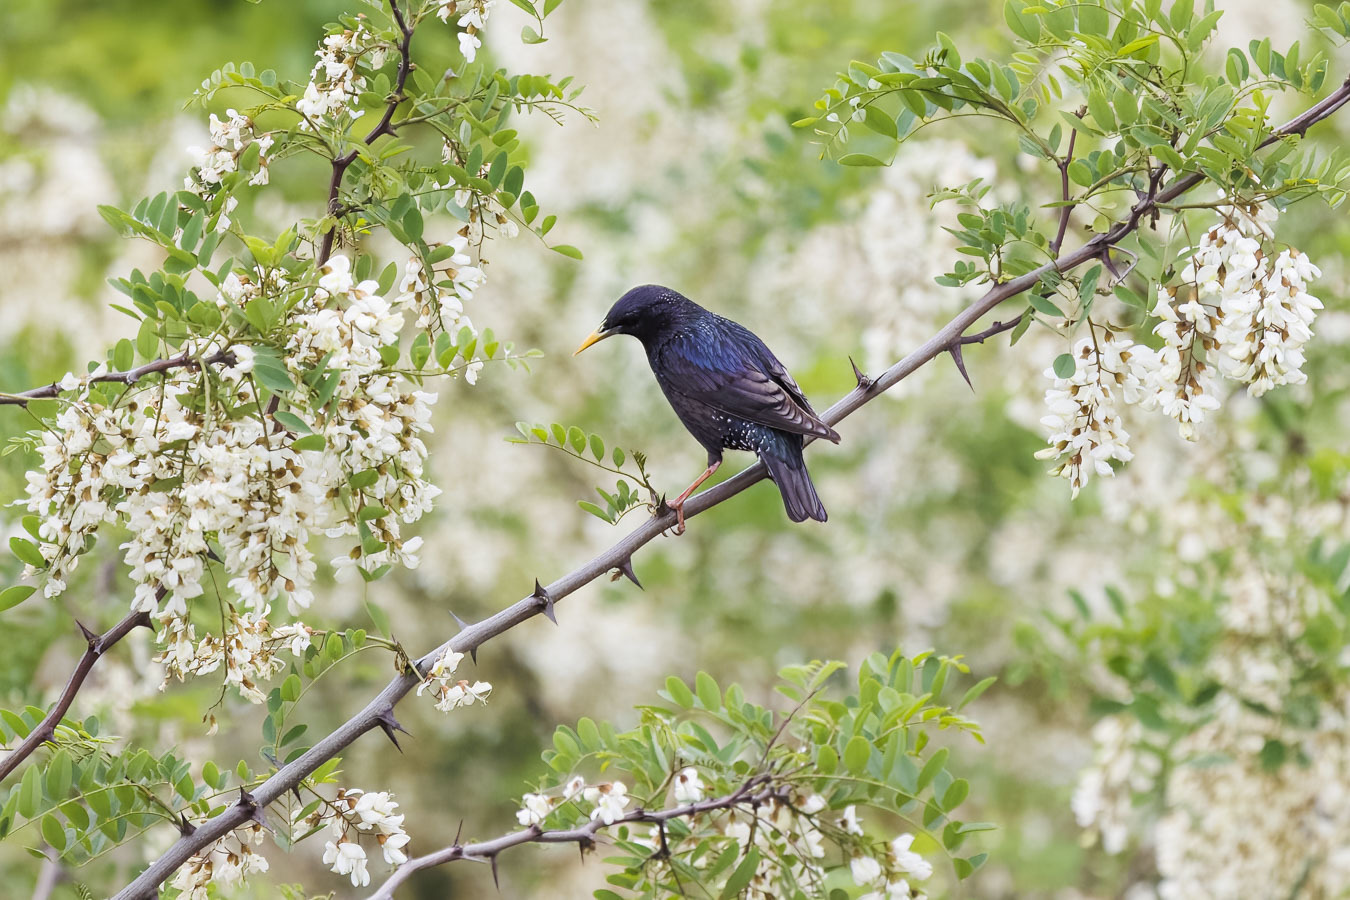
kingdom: Animalia
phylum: Chordata
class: Aves
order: Passeriformes
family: Sturnidae
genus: Sturnus
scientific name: Sturnus vulgaris
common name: Common starling
